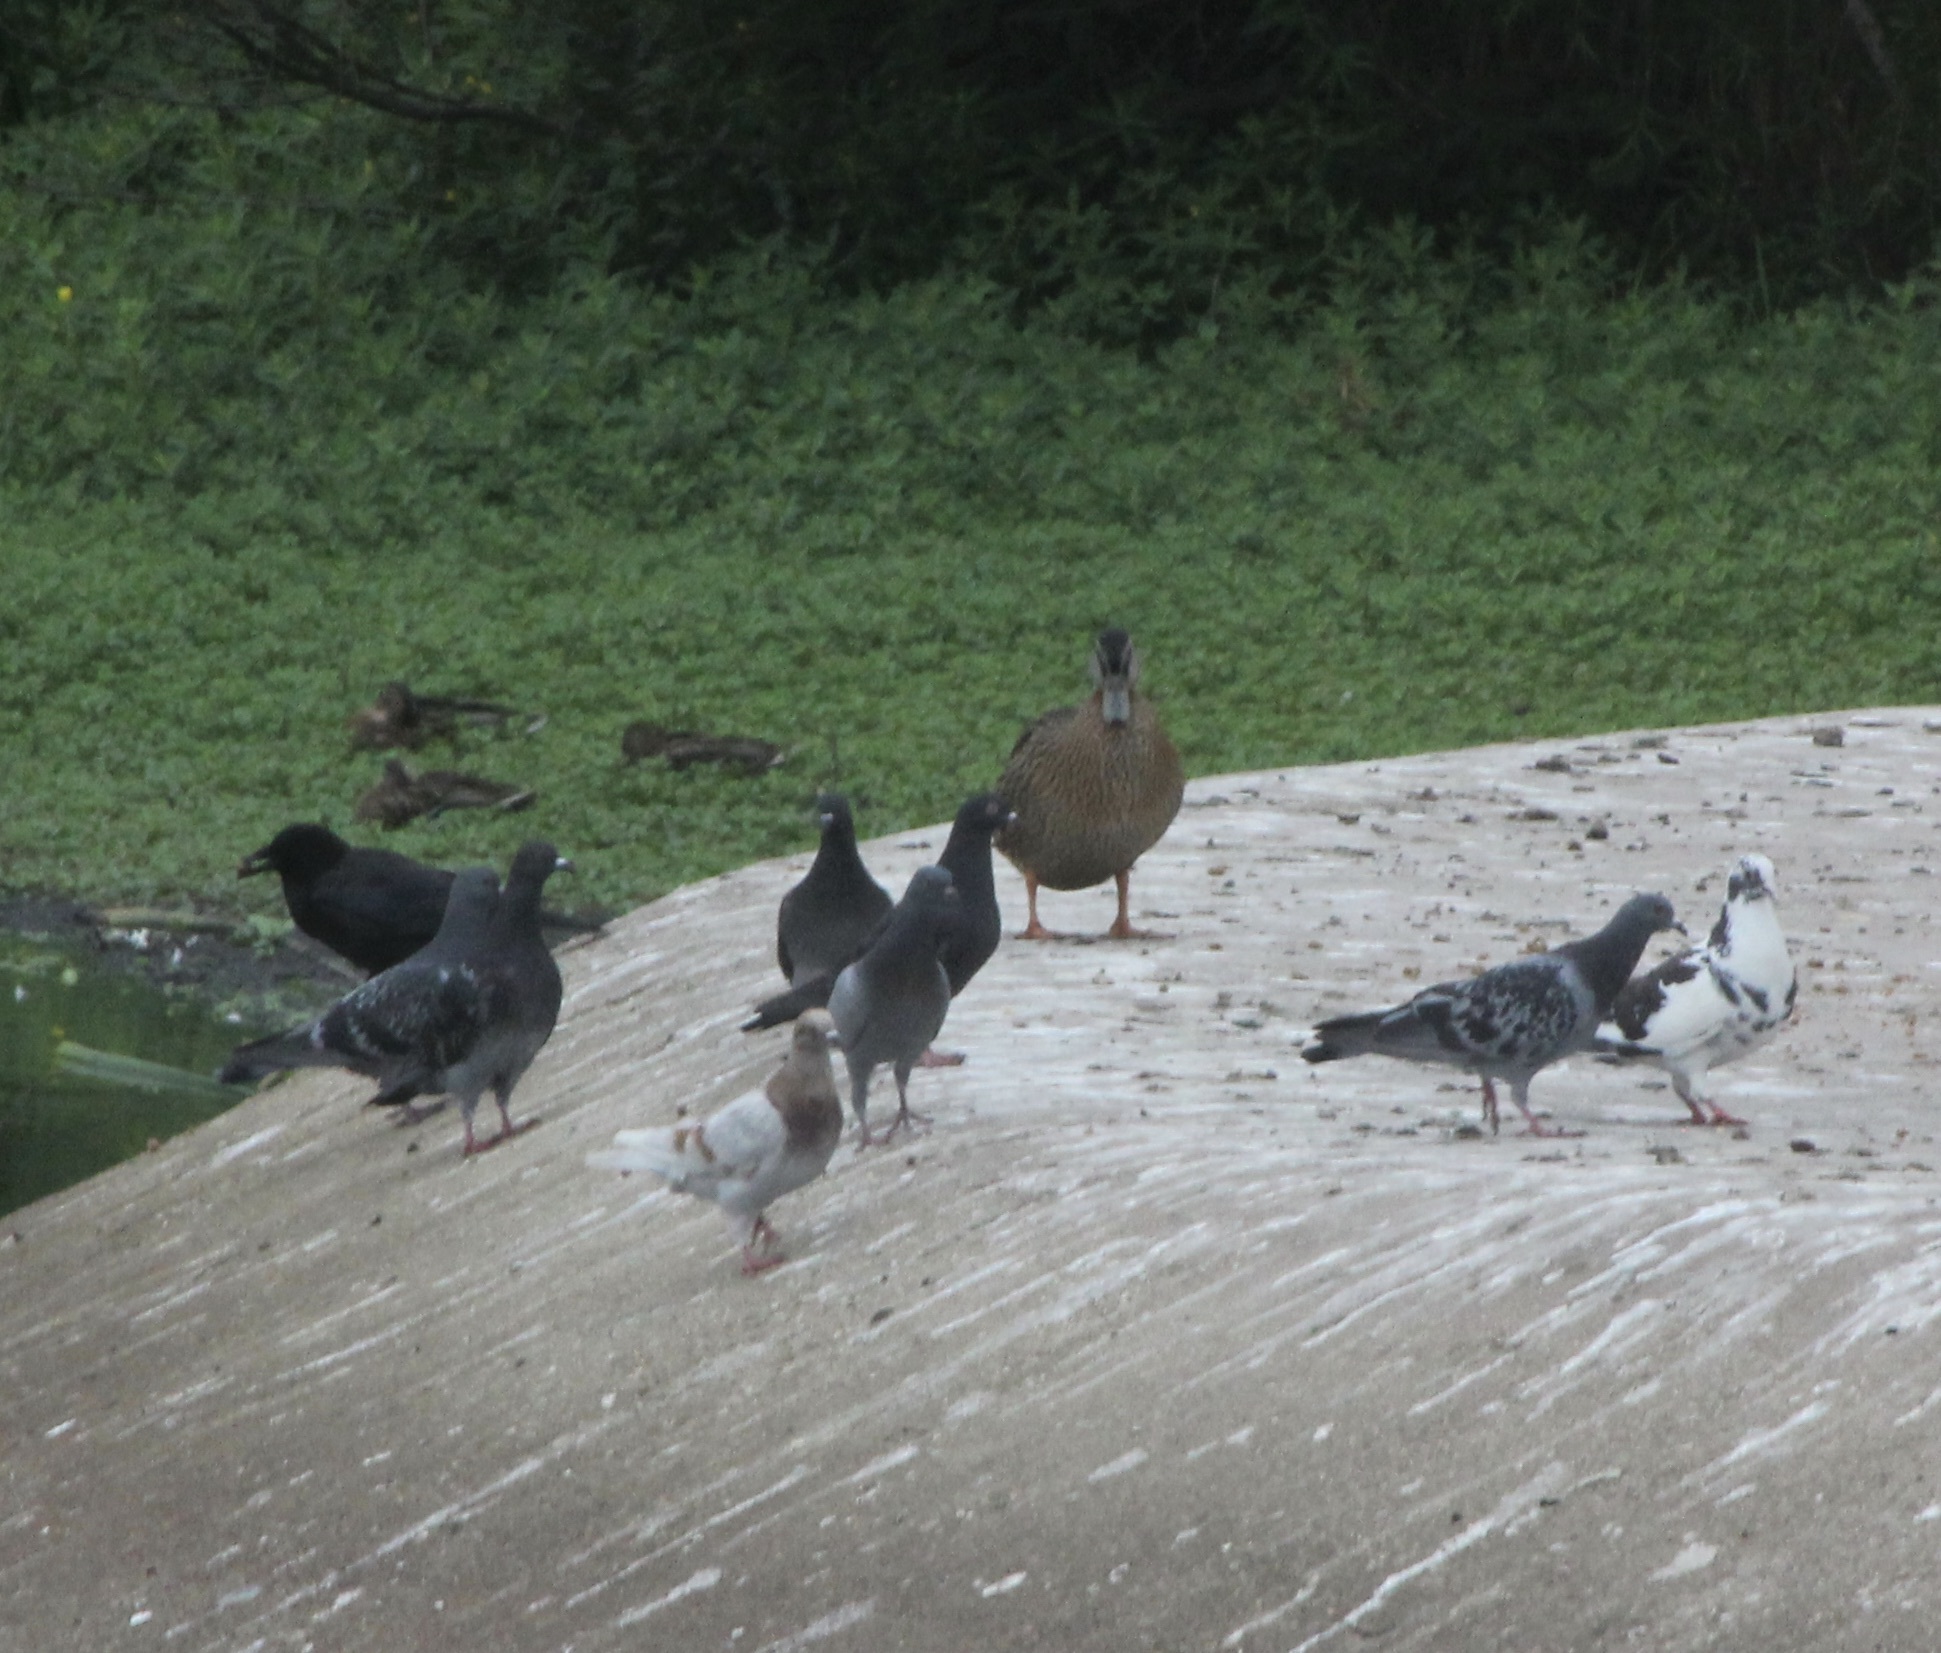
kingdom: Animalia
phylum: Chordata
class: Aves
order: Columbiformes
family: Columbidae
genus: Columba
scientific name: Columba livia
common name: Rock pigeon
